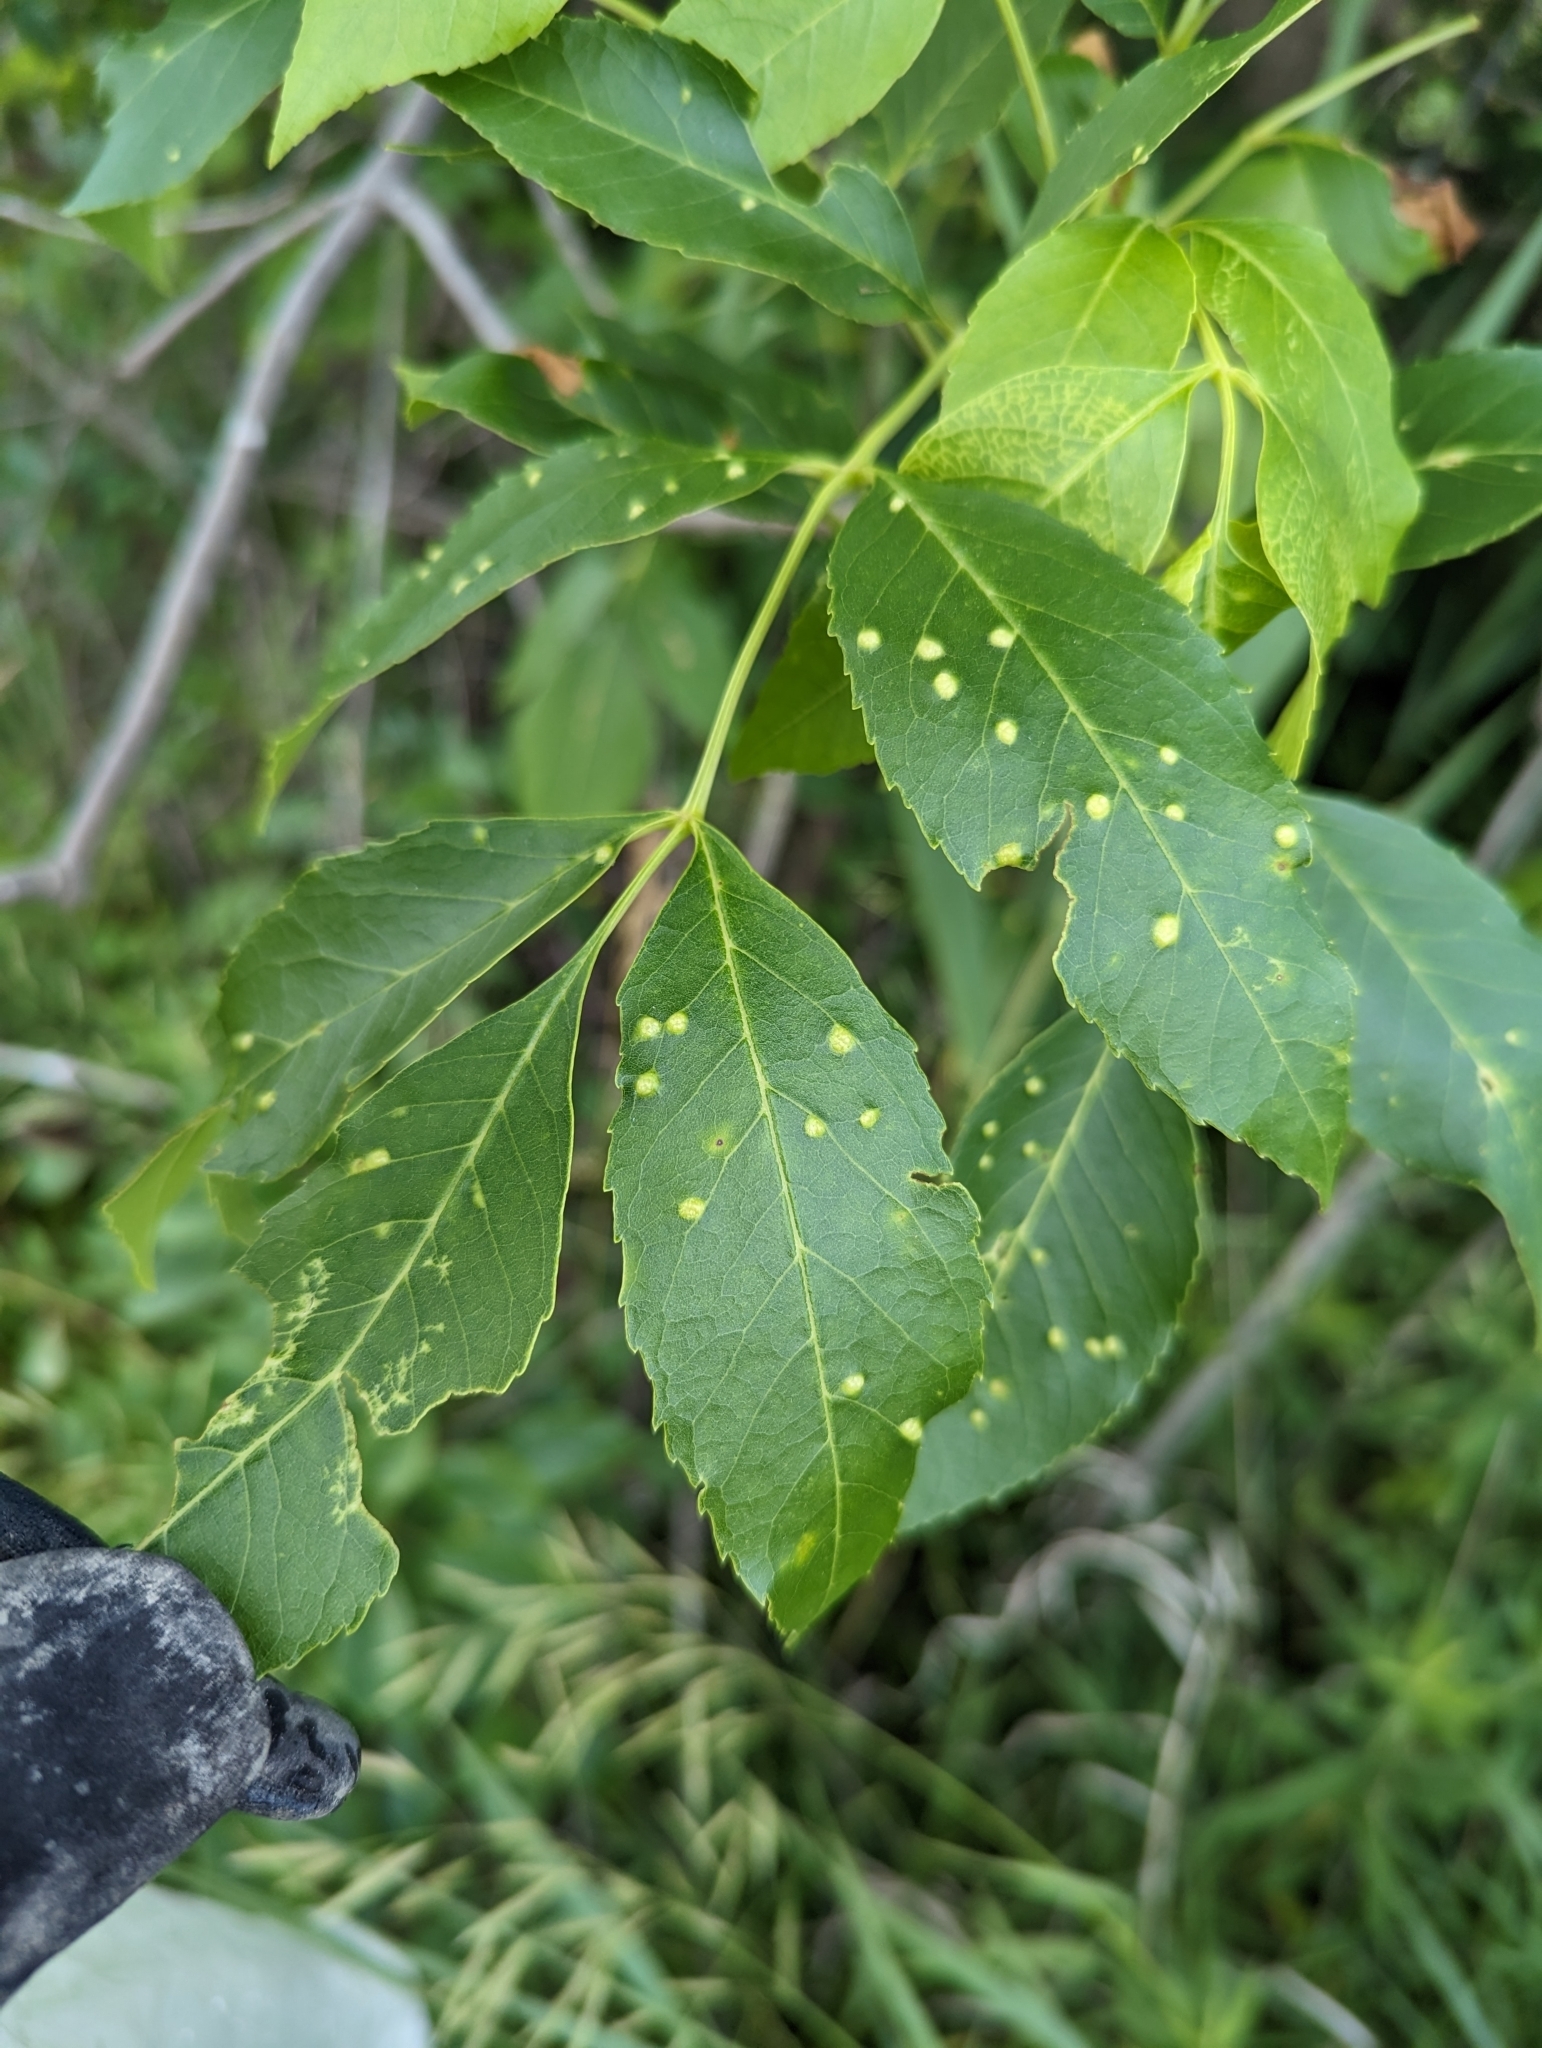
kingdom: Animalia
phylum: Arthropoda
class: Arachnida
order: Trombidiformes
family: Eriophyidae
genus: Aceria
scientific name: Aceria fraxinicola
